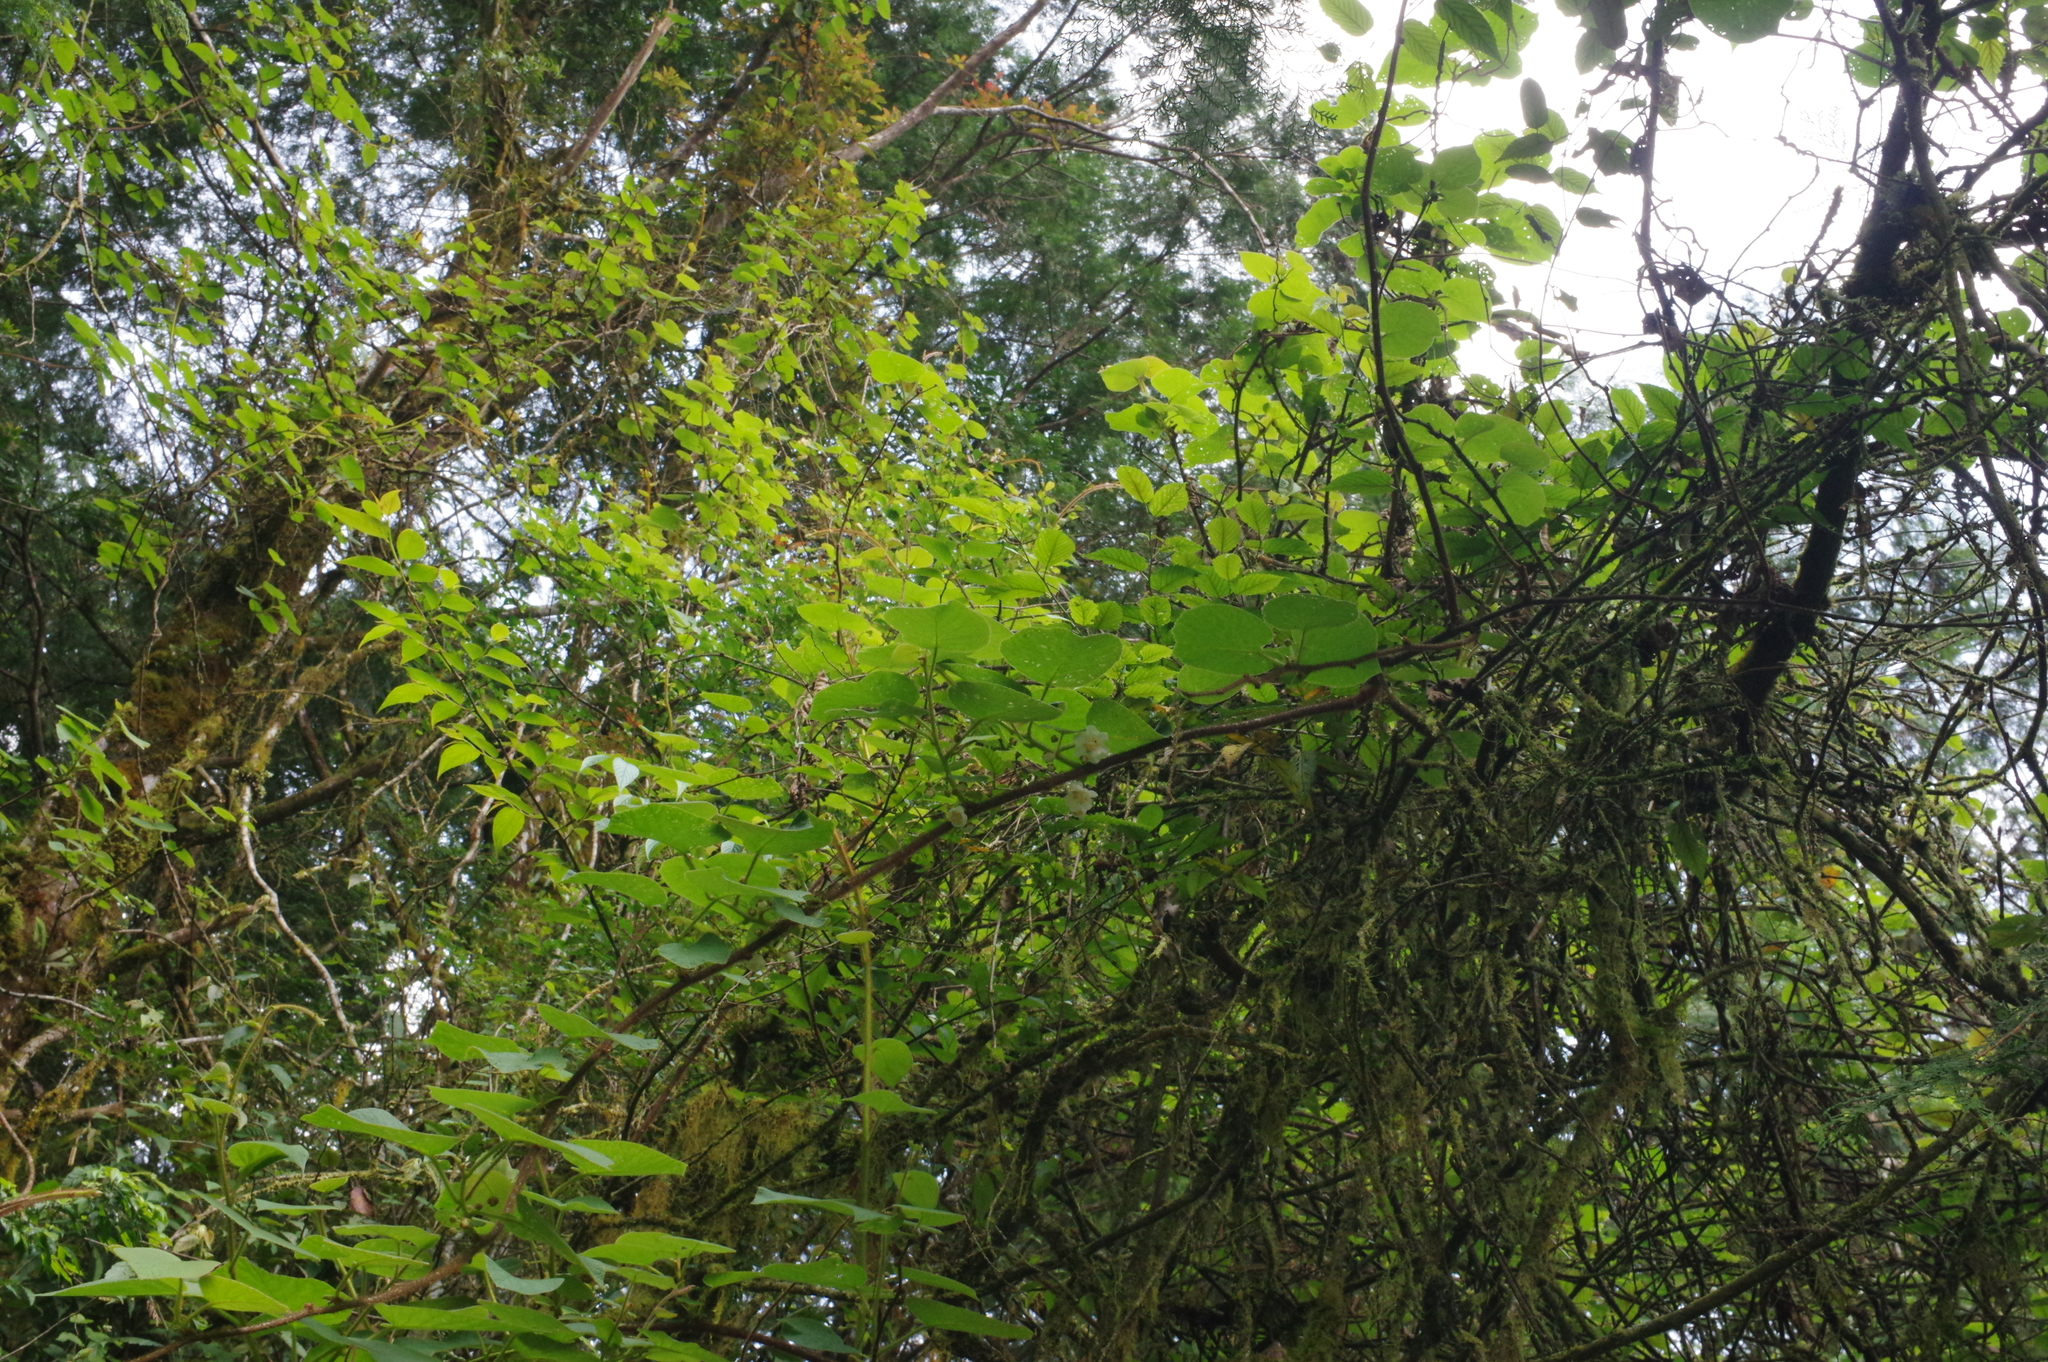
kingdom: Plantae
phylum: Tracheophyta
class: Magnoliopsida
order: Ericales
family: Actinidiaceae
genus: Actinidia
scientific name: Actinidia chinensis
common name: Kiwi
